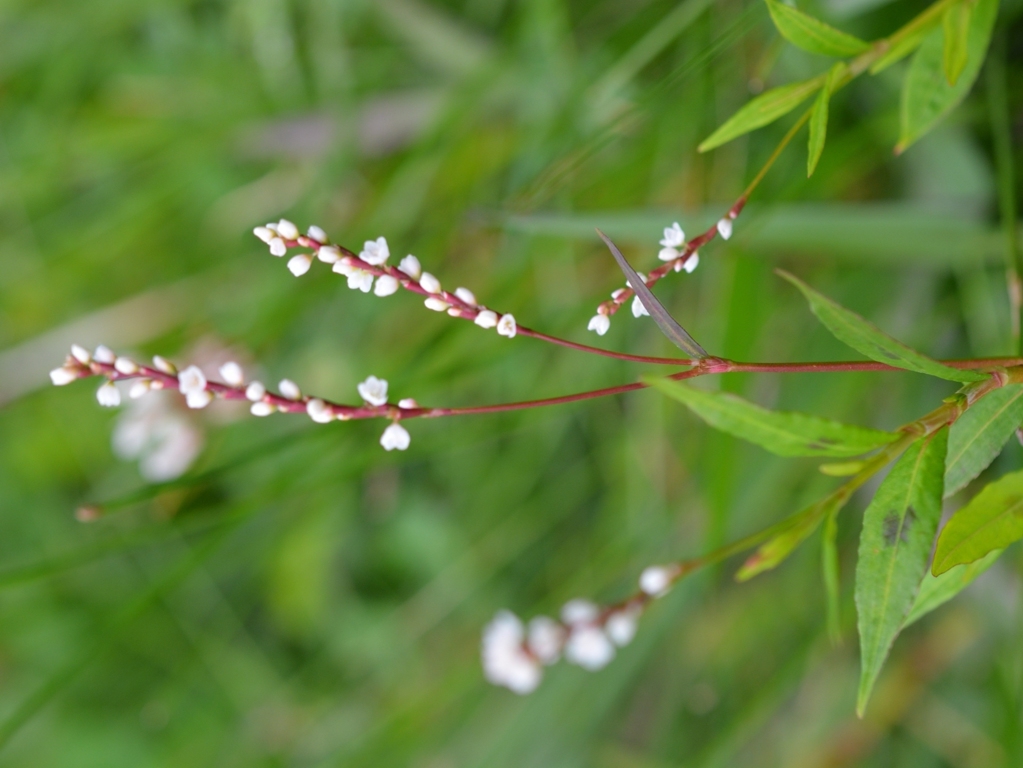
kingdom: Plantae
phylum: Tracheophyta
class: Magnoliopsida
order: Caryophyllales
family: Polygonaceae
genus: Persicaria
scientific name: Persicaria hydropiperoides
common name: Swamp smartweed
